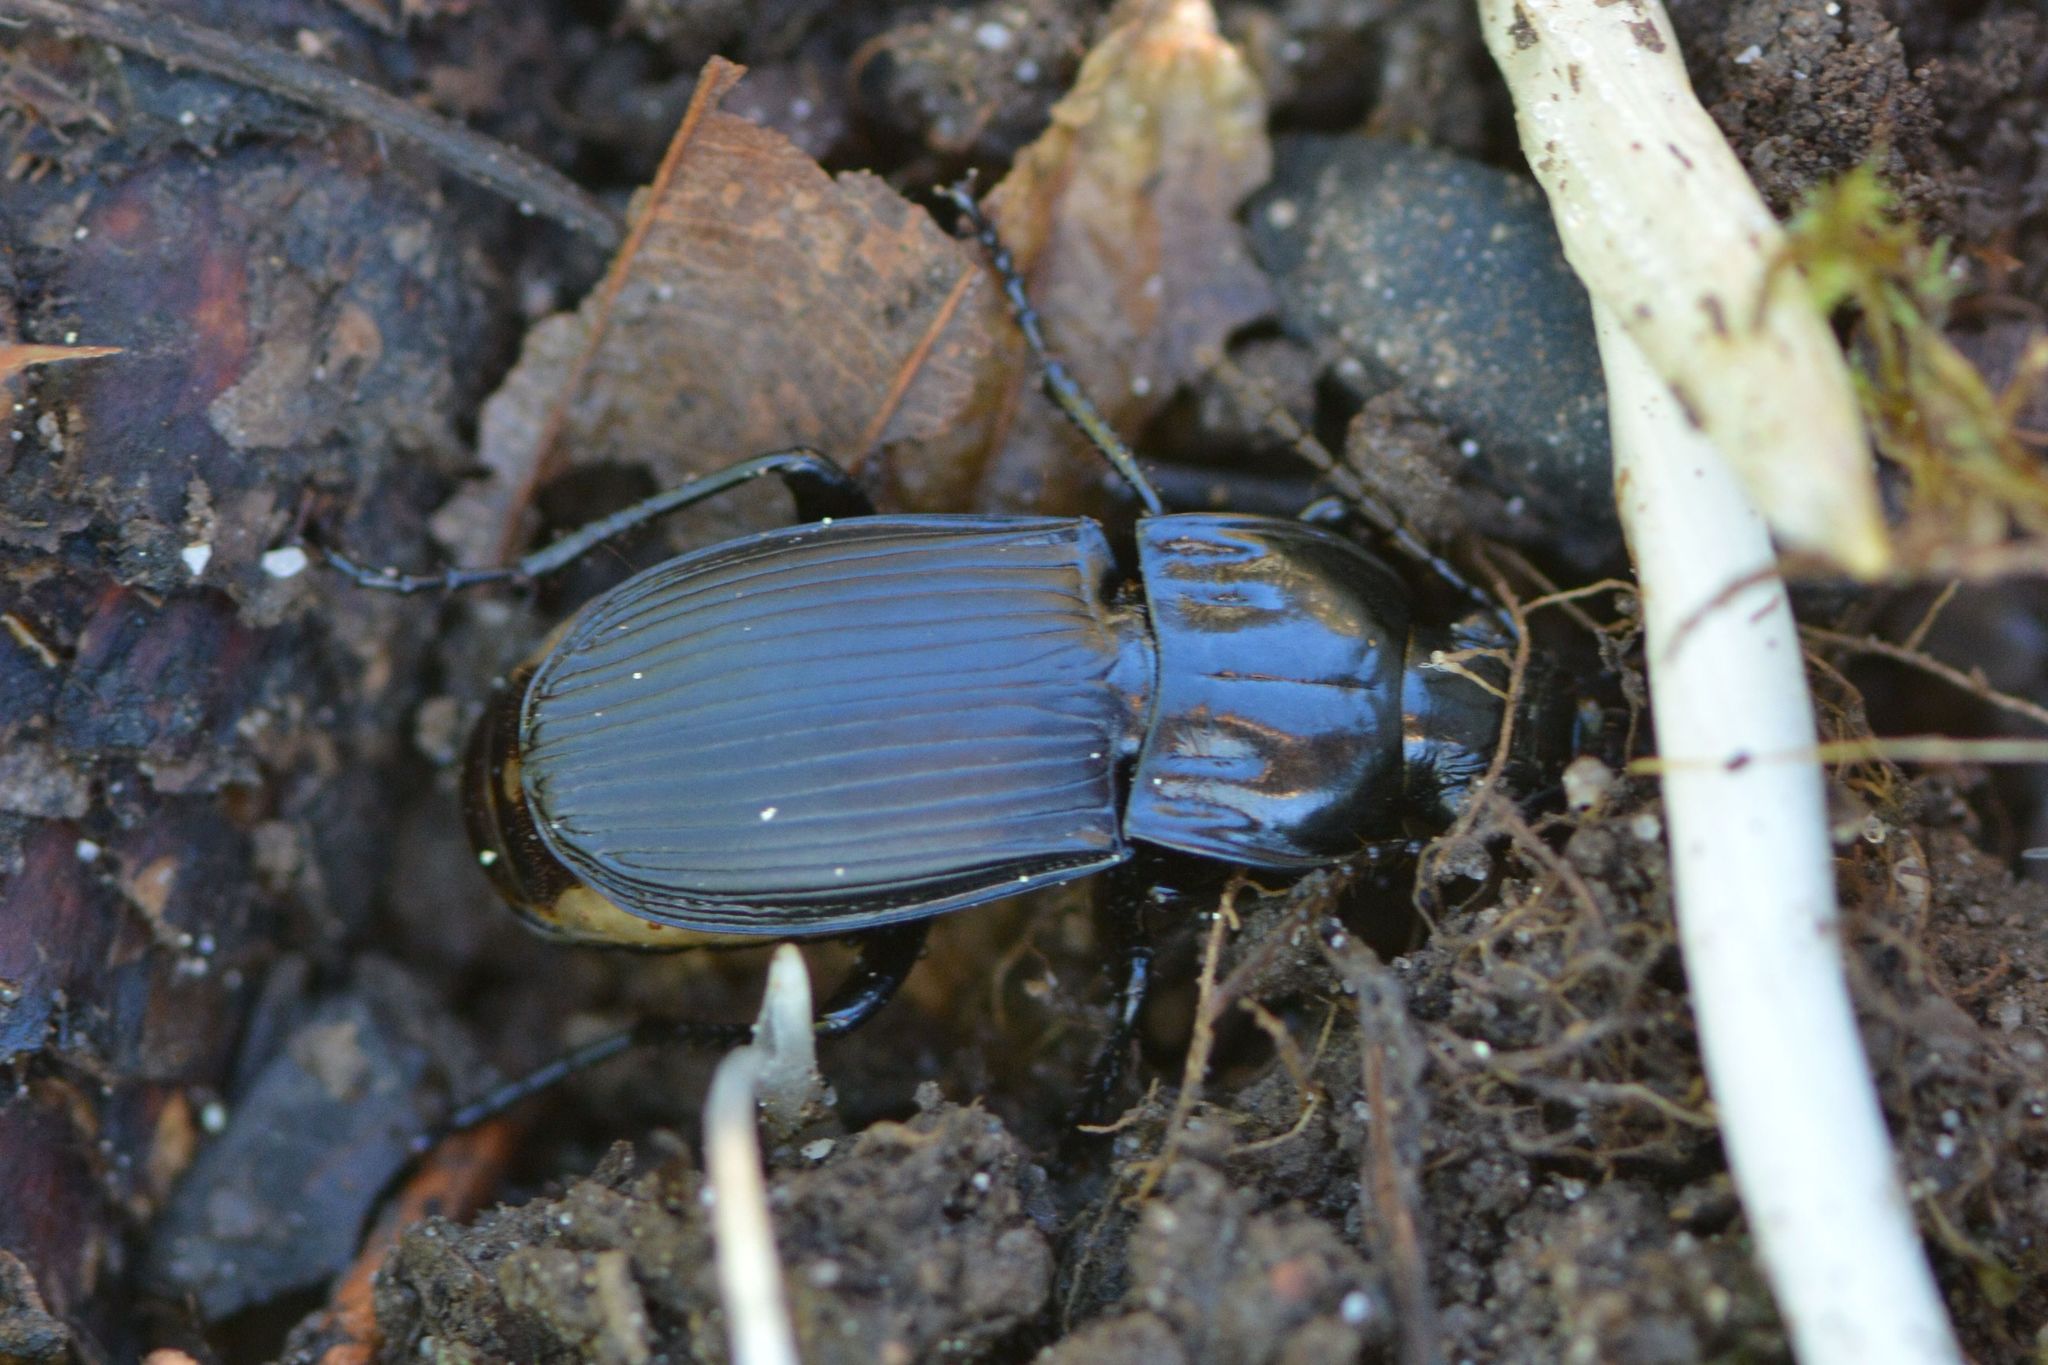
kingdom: Animalia
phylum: Arthropoda
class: Insecta
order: Coleoptera
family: Carabidae
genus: Abax
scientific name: Abax parallelepipedus
